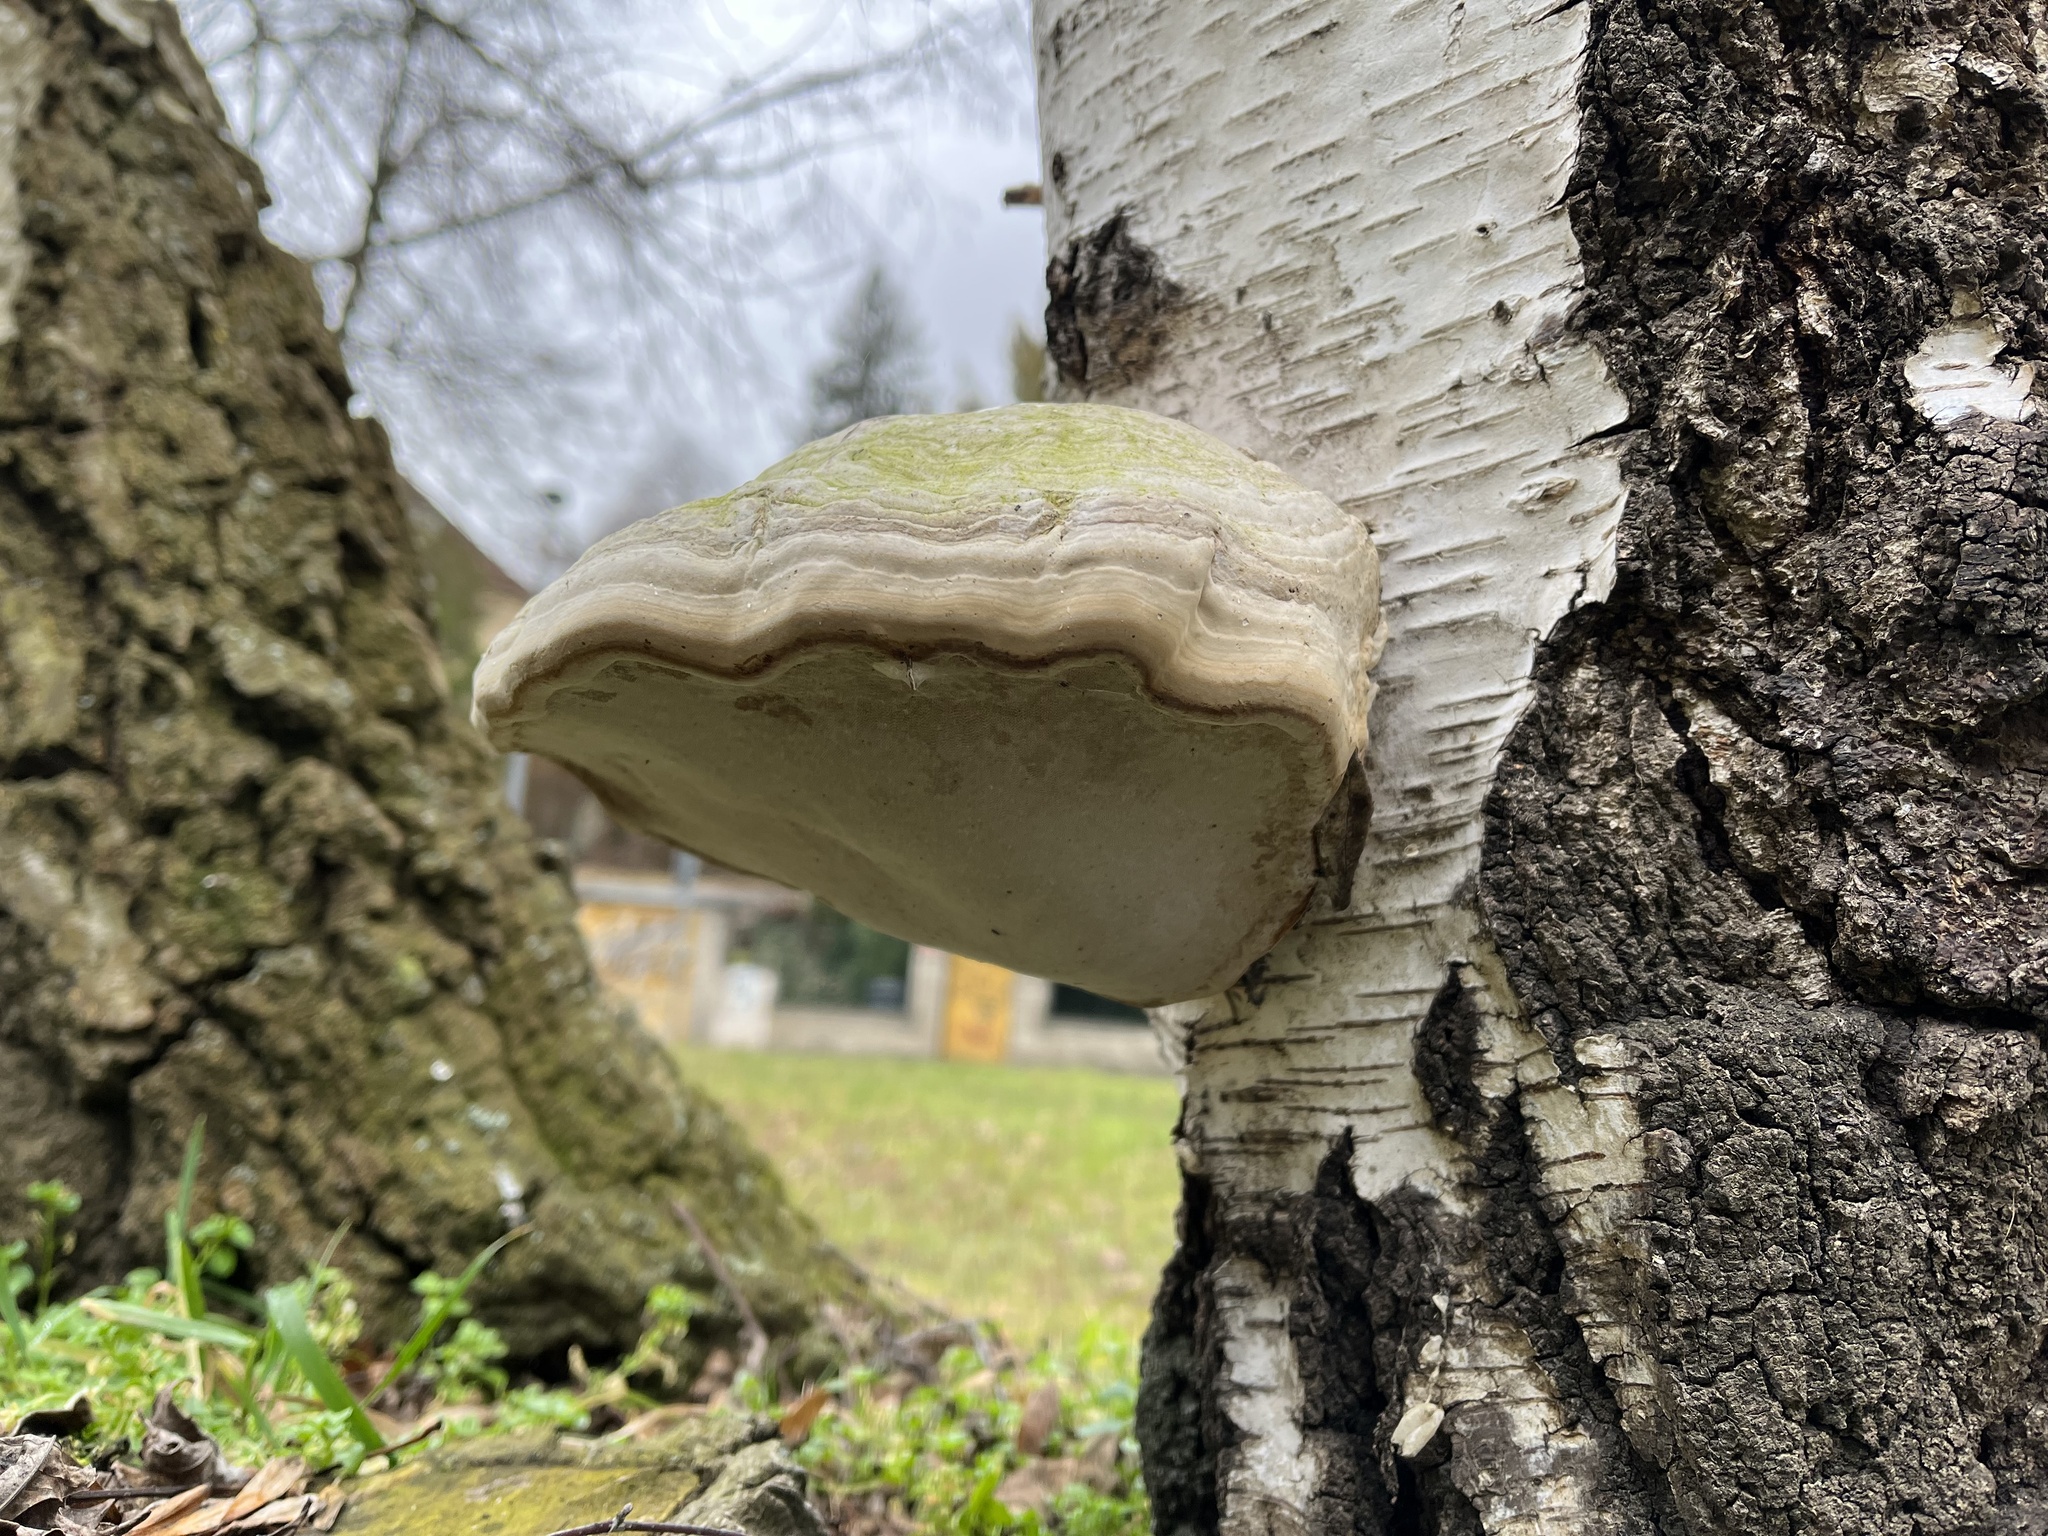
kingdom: Fungi
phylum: Basidiomycota
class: Agaricomycetes
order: Polyporales
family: Polyporaceae
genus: Fomes
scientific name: Fomes fomentarius
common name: Hoof fungus
